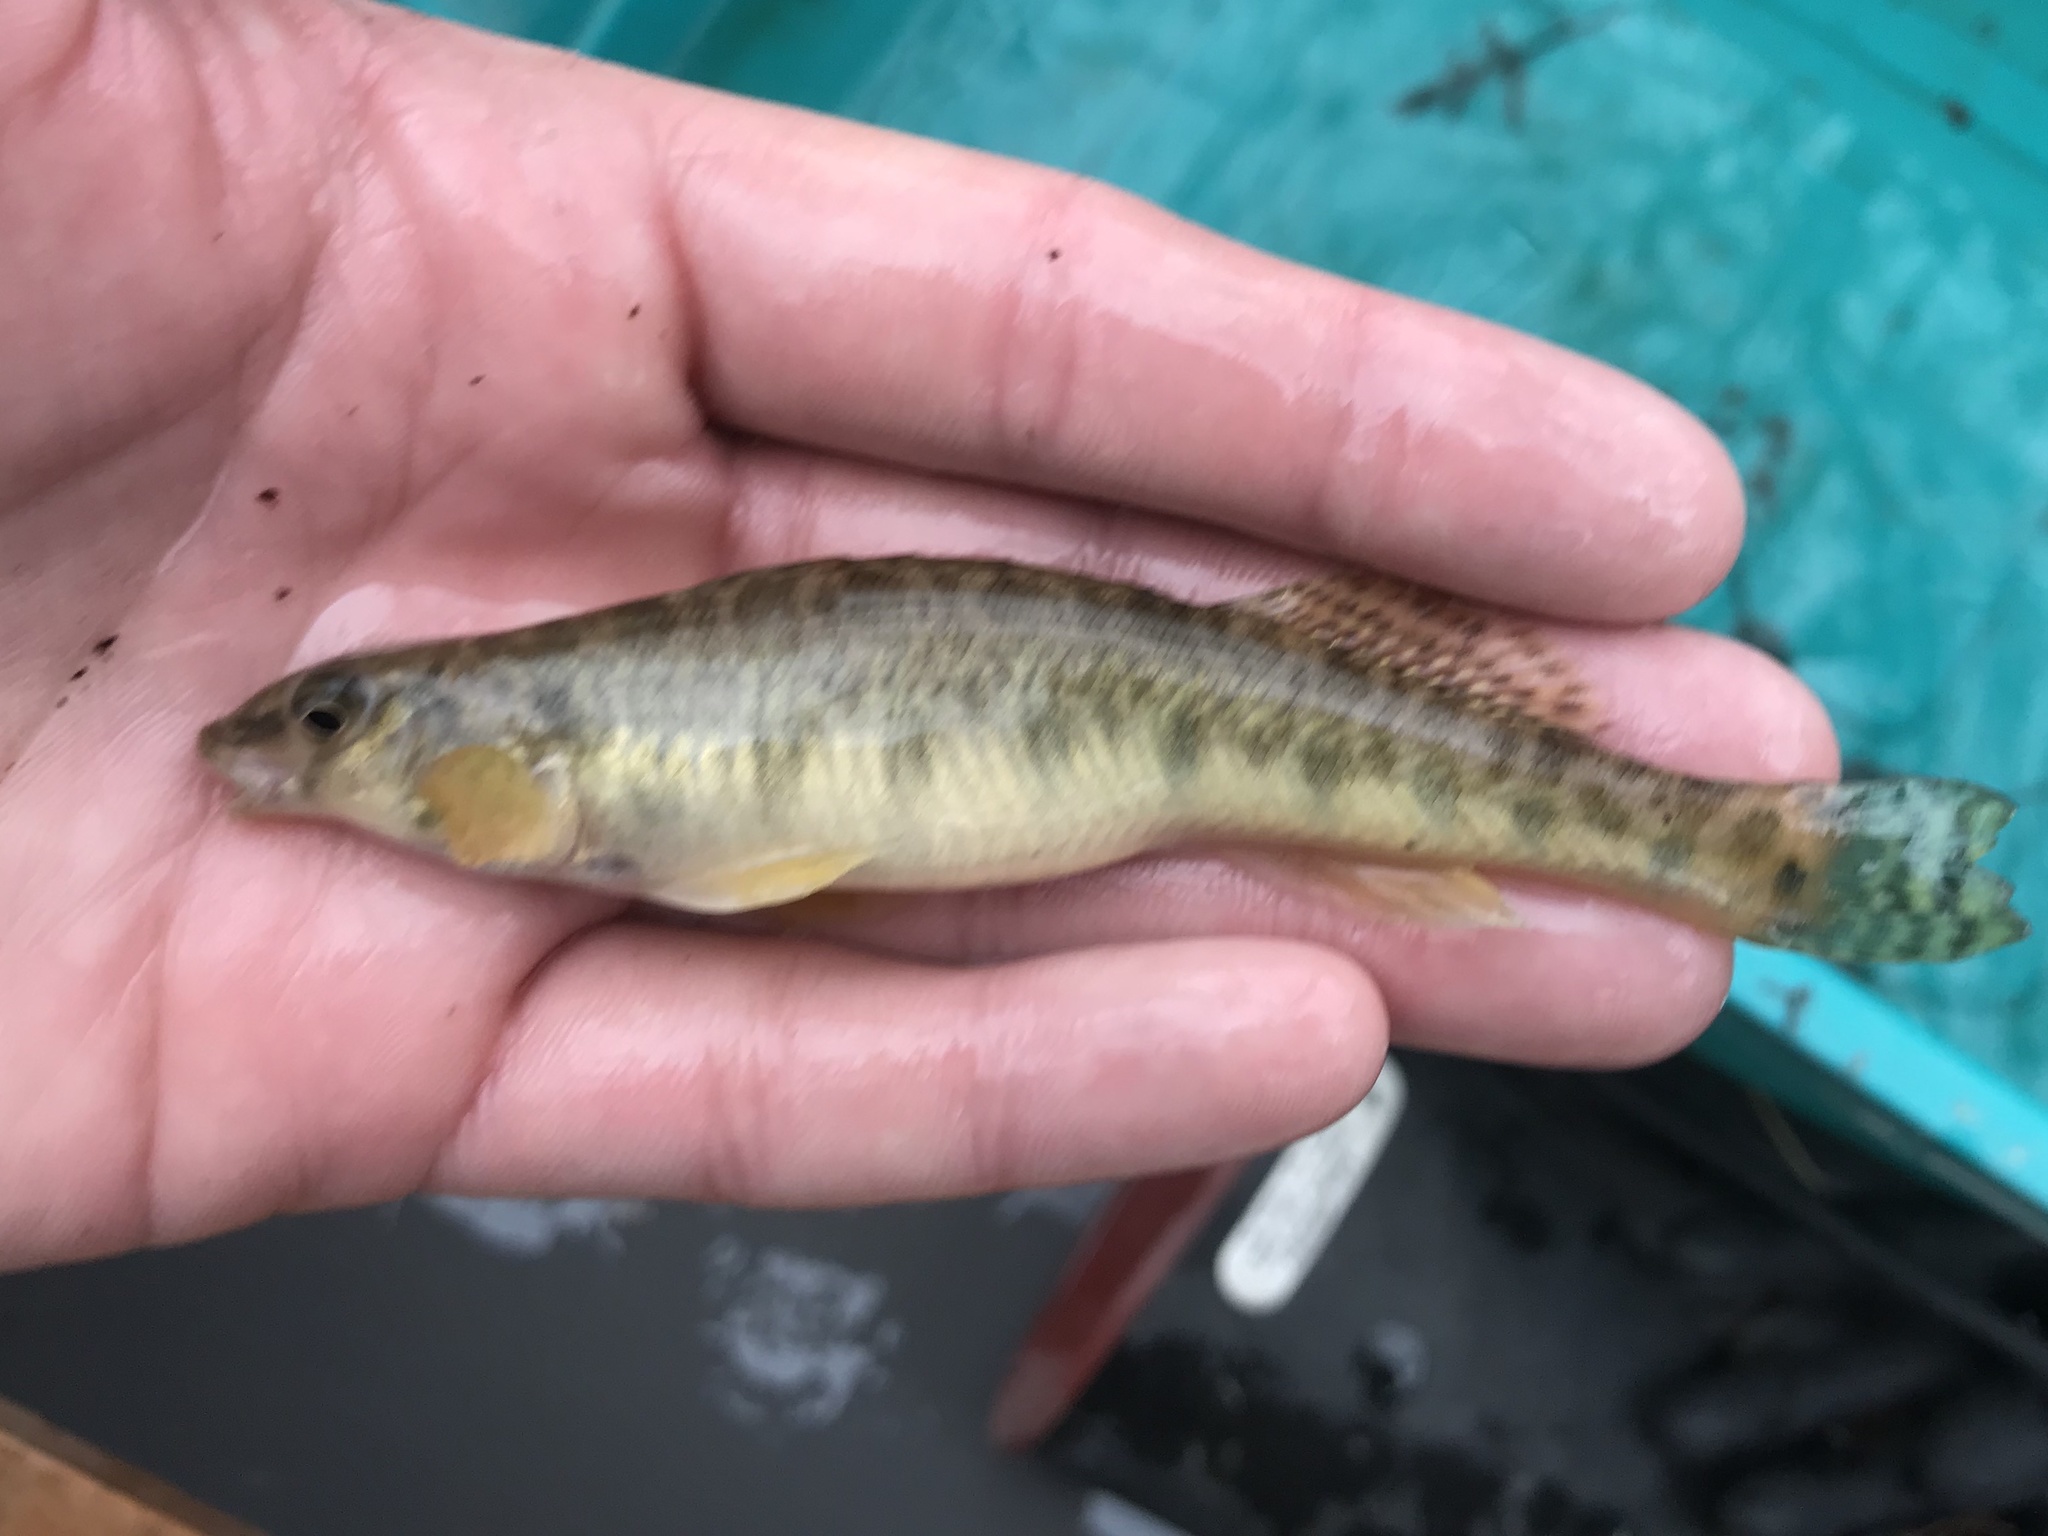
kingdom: Animalia
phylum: Chordata
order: Perciformes
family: Percidae
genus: Percina
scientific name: Percina carbonaria
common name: Texas logperch
